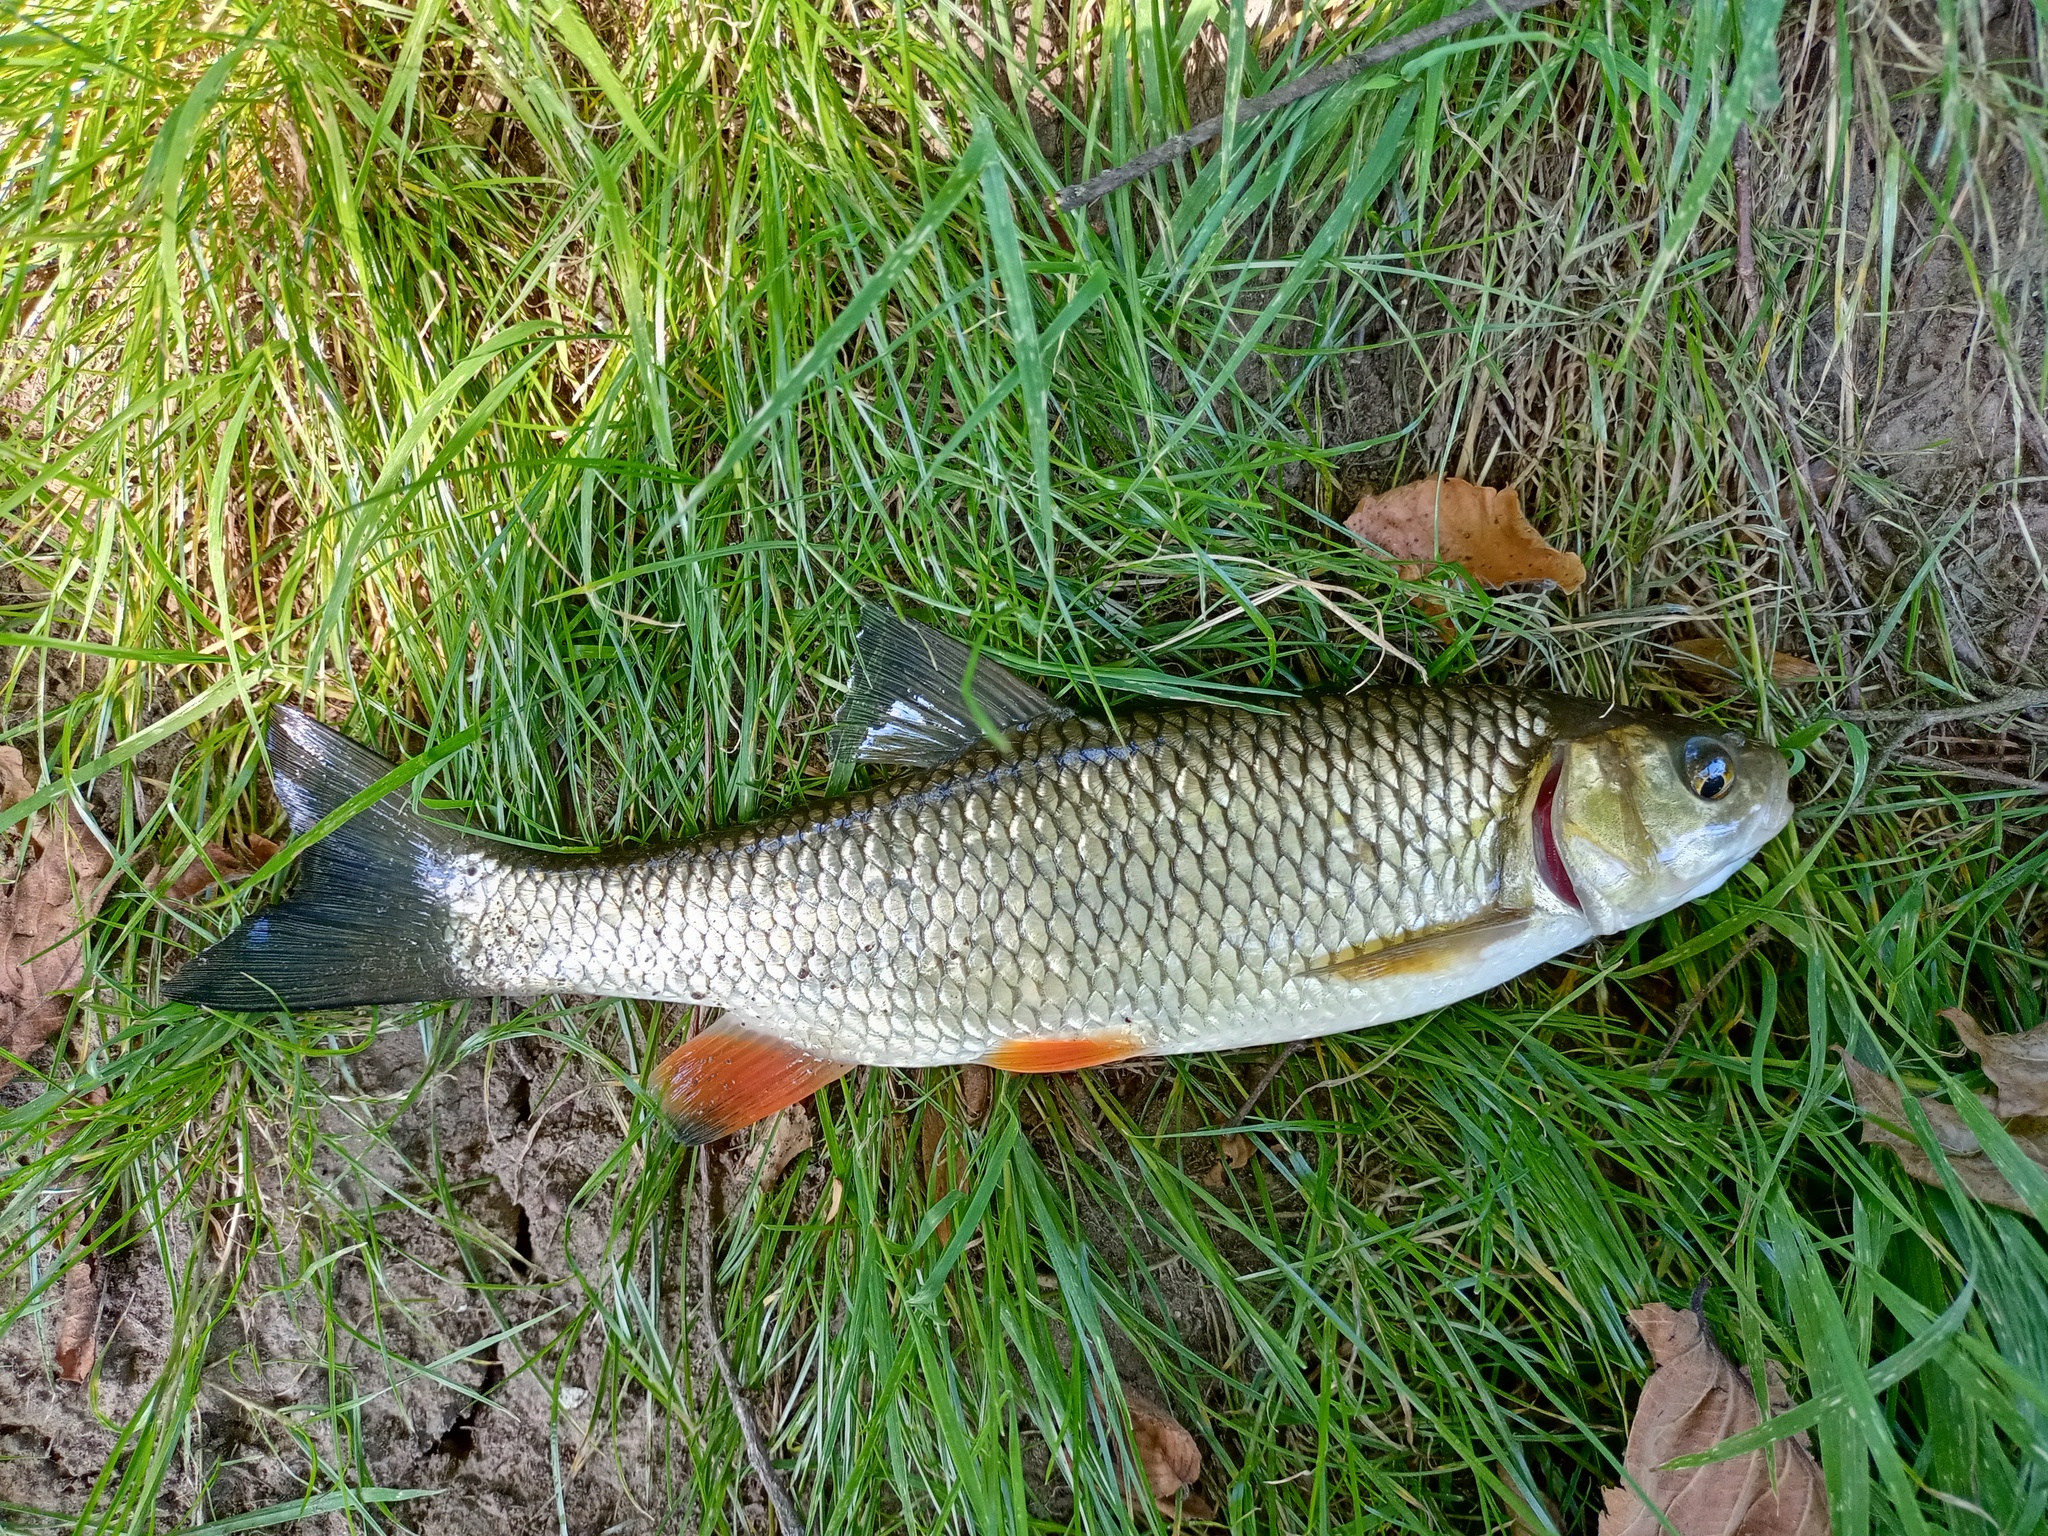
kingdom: Animalia
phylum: Chordata
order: Cypriniformes
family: Cyprinidae
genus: Squalius
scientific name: Squalius cephalus
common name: Chub
